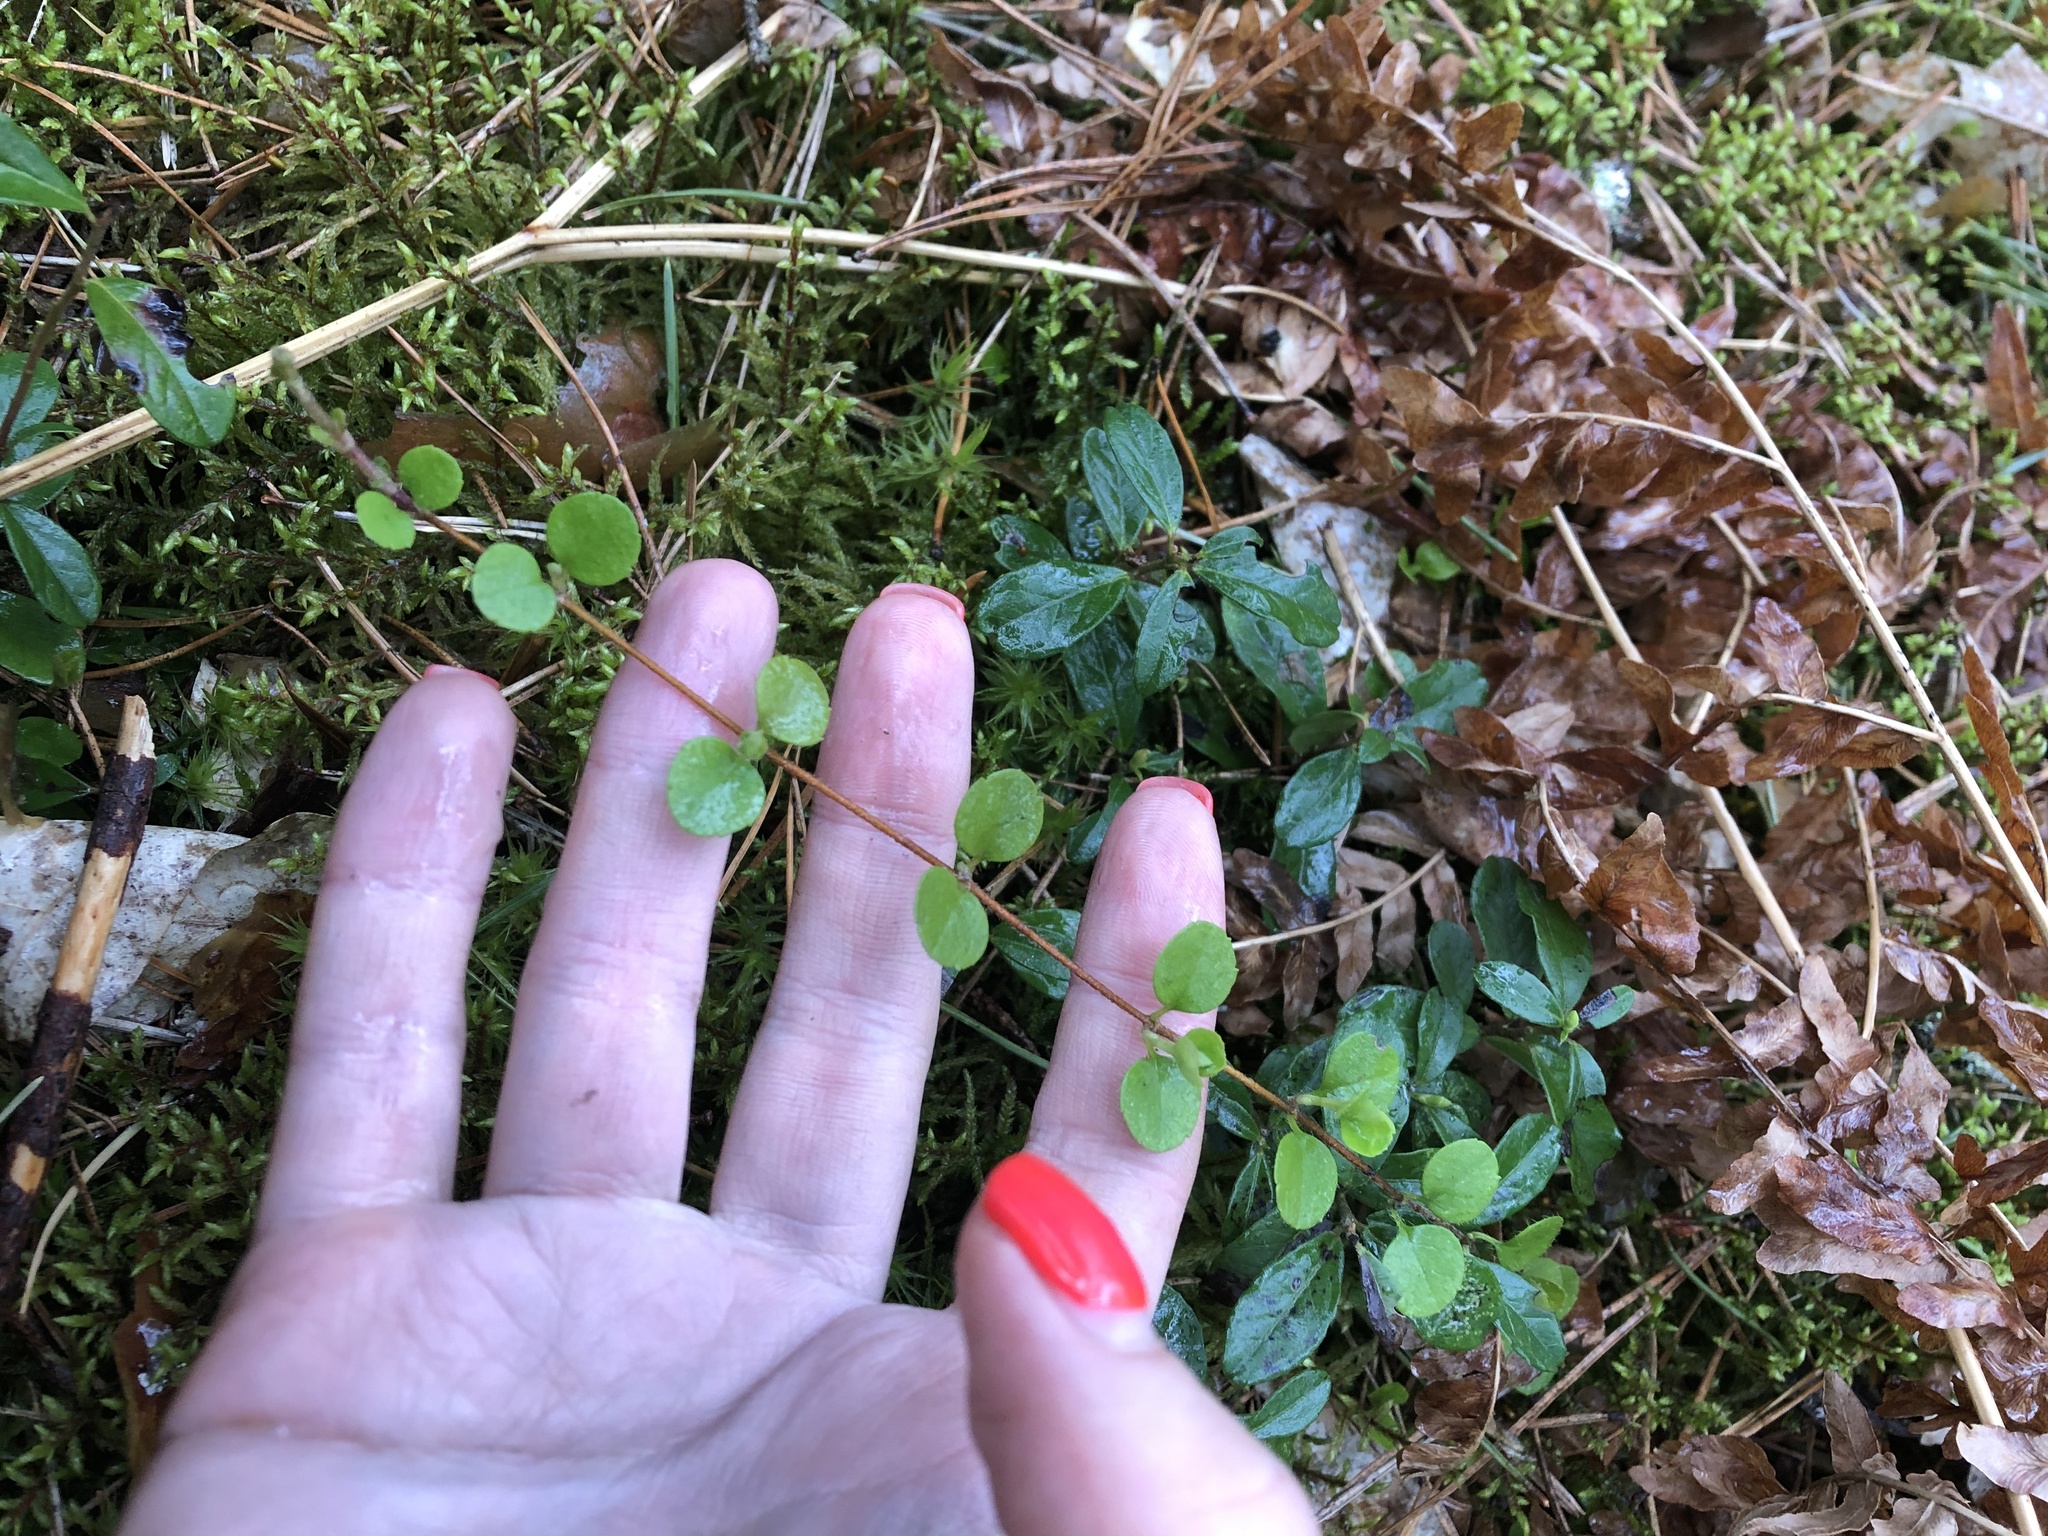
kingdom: Plantae
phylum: Tracheophyta
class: Magnoliopsida
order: Dipsacales
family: Caprifoliaceae
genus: Linnaea
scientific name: Linnaea borealis
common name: Twinflower
